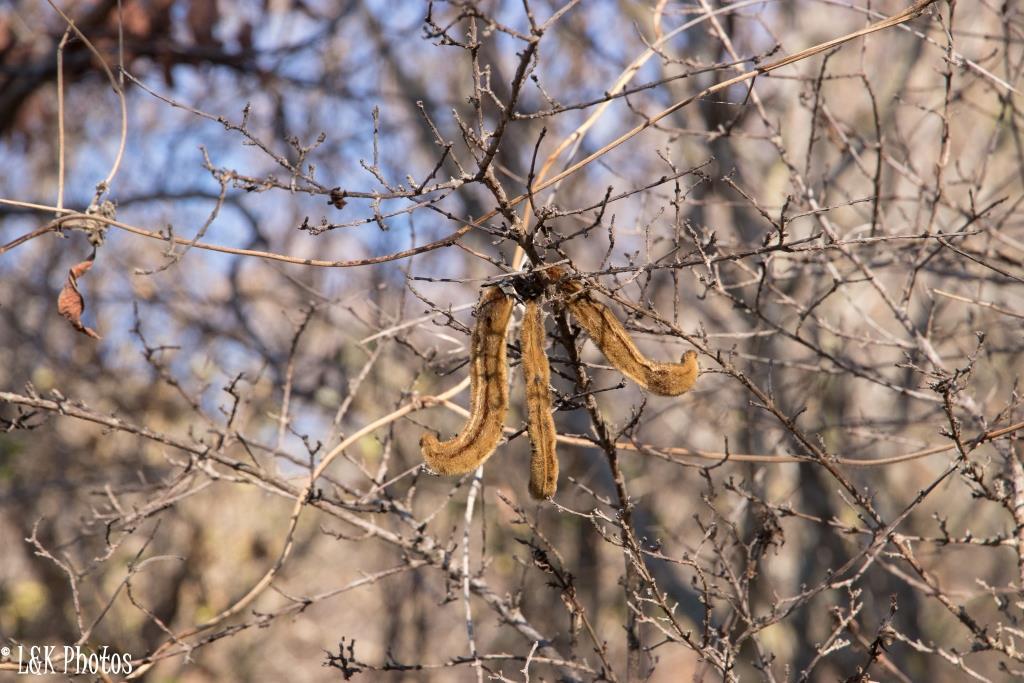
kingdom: Plantae
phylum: Tracheophyta
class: Magnoliopsida
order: Fabales
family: Fabaceae
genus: Mucuna
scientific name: Mucuna pruriens
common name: Cow-itch
